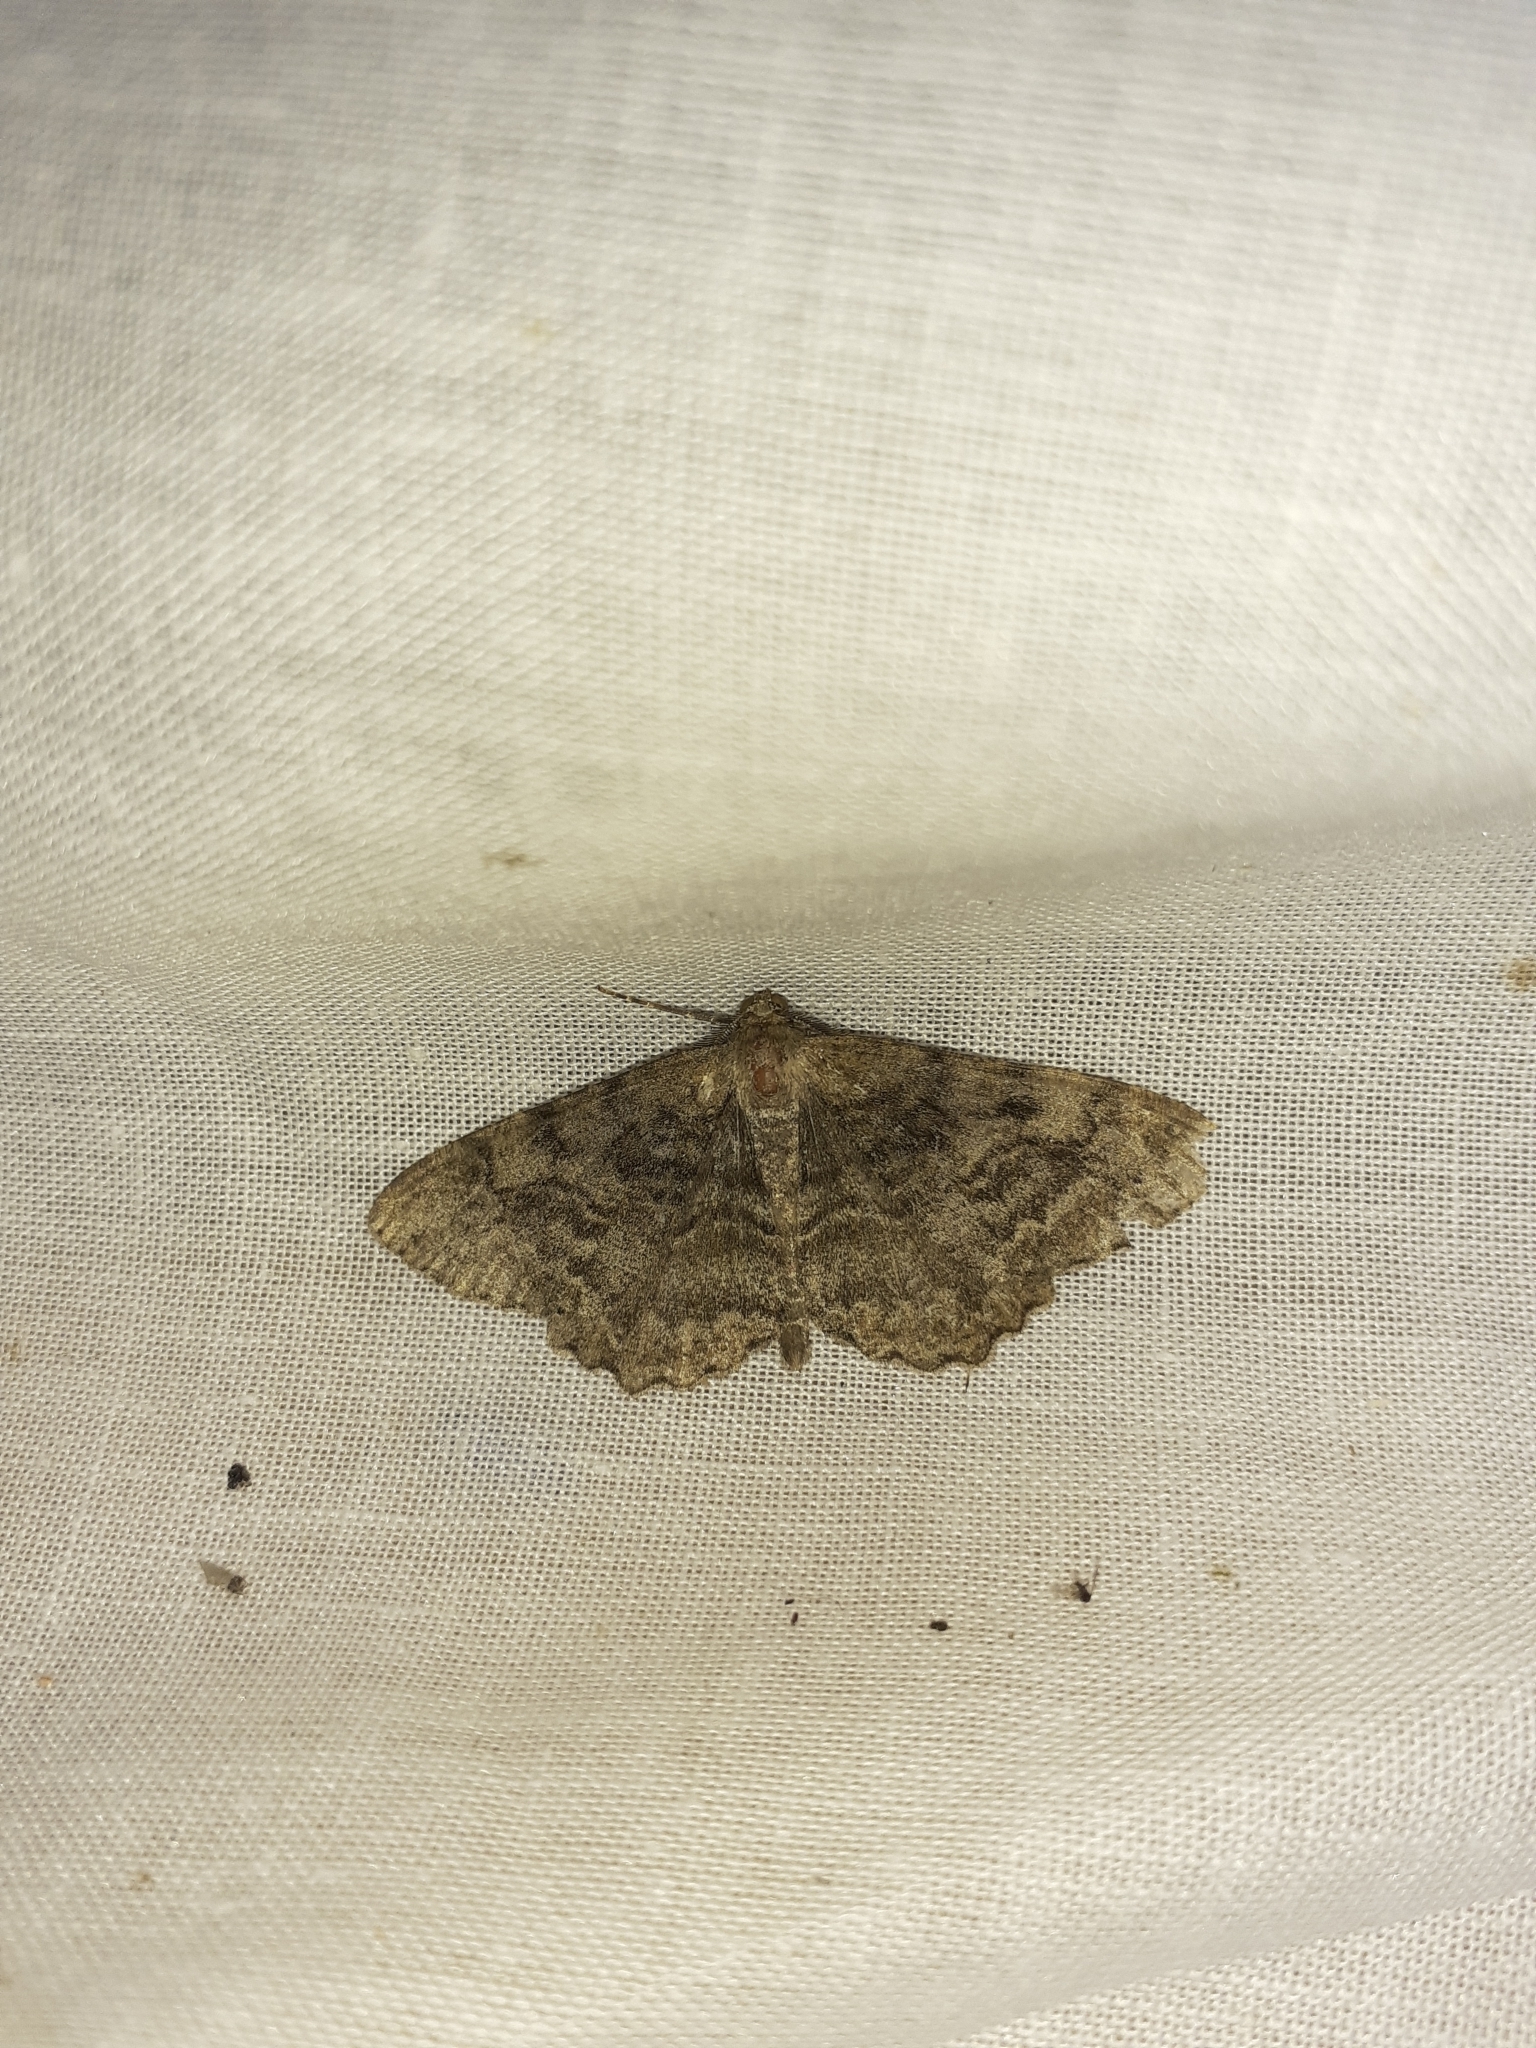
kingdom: Animalia
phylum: Arthropoda
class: Insecta
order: Lepidoptera
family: Geometridae
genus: Alcis
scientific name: Alcis repandata
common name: Mottled beauty
